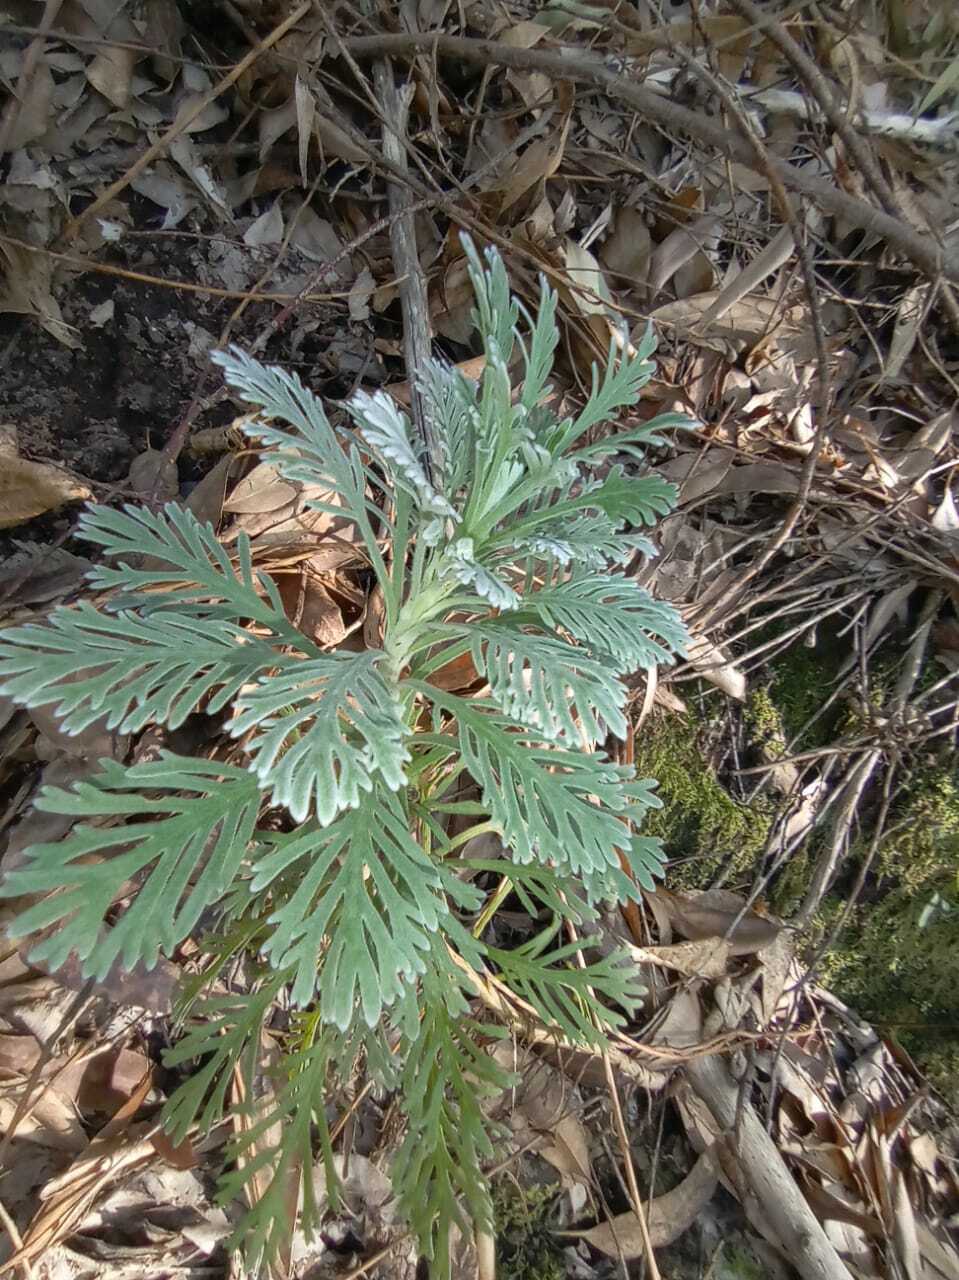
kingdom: Plantae
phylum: Tracheophyta
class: Magnoliopsida
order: Asterales
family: Asteraceae
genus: Euryops
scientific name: Euryops pectinatus
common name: Gray-leaf euryops
